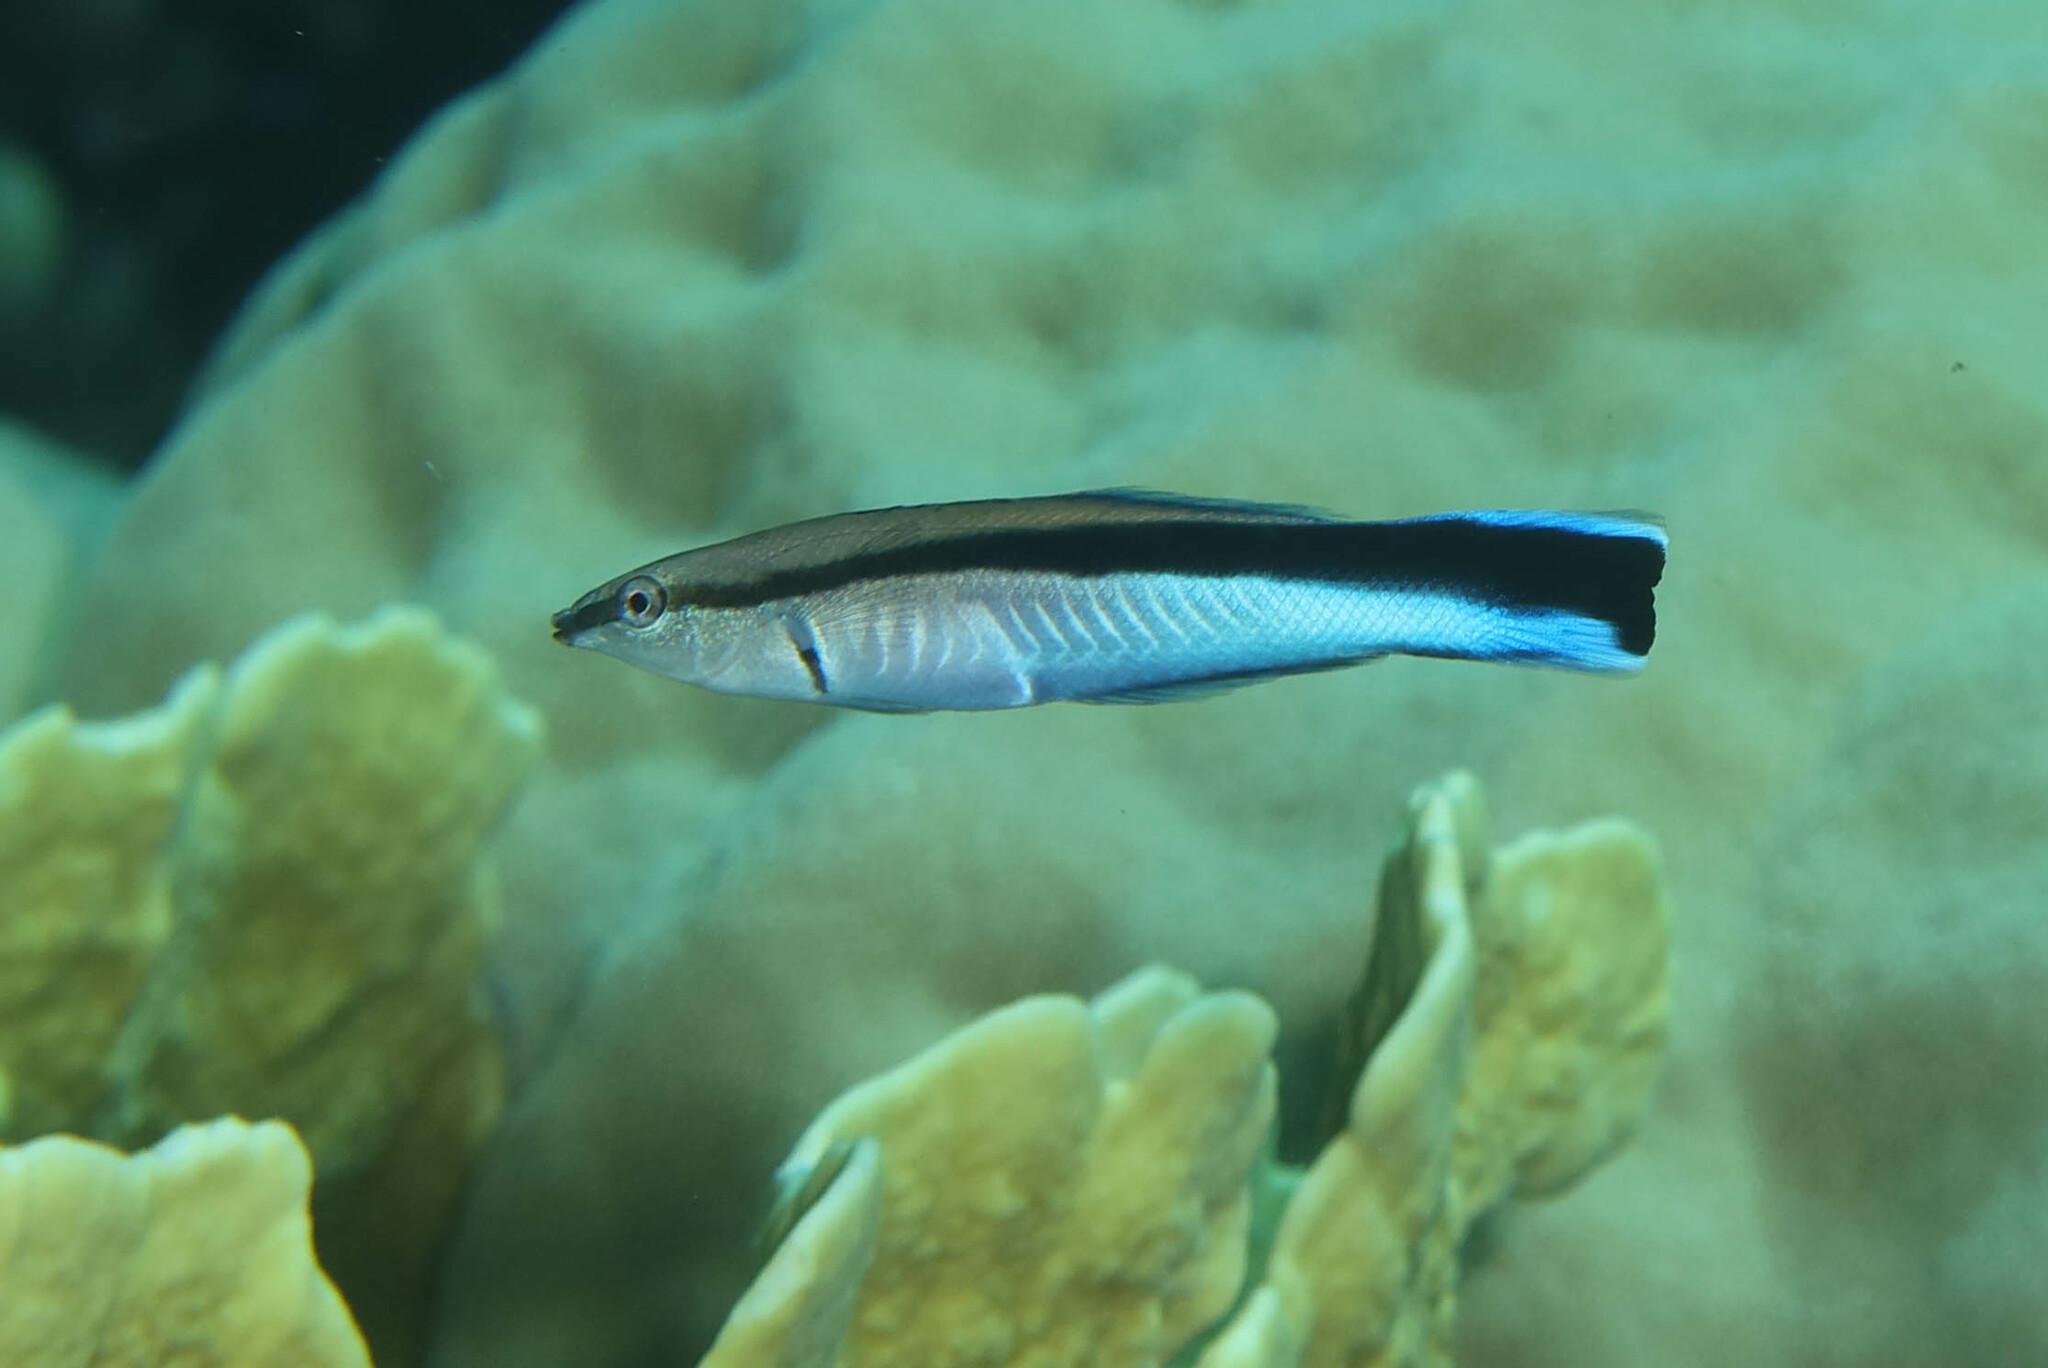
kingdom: Animalia
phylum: Chordata
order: Perciformes
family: Labridae
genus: Labroides
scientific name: Labroides dimidiatus
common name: Blue diesel wrasse
